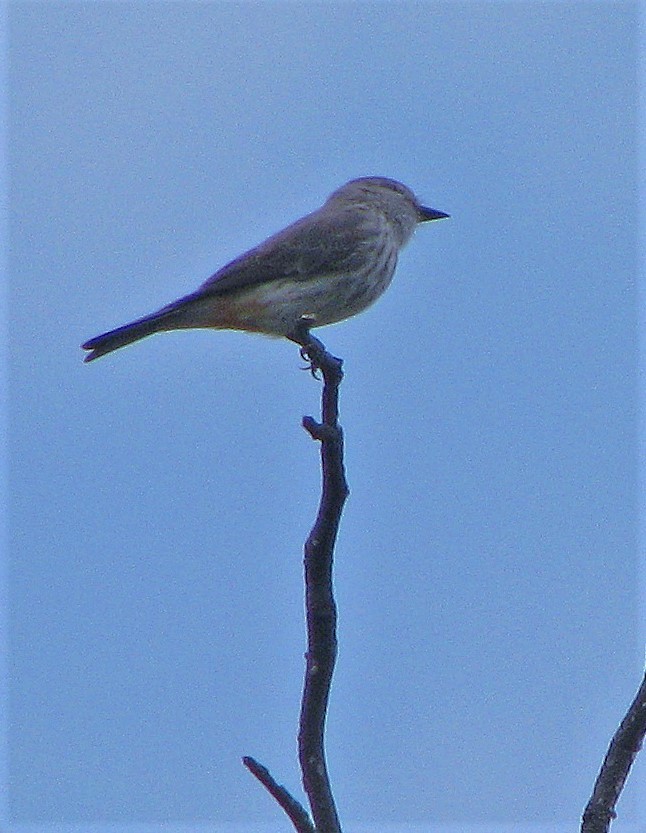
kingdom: Animalia
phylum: Chordata
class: Aves
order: Passeriformes
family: Tyrannidae
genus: Pyrocephalus
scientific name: Pyrocephalus rubinus
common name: Vermilion flycatcher
